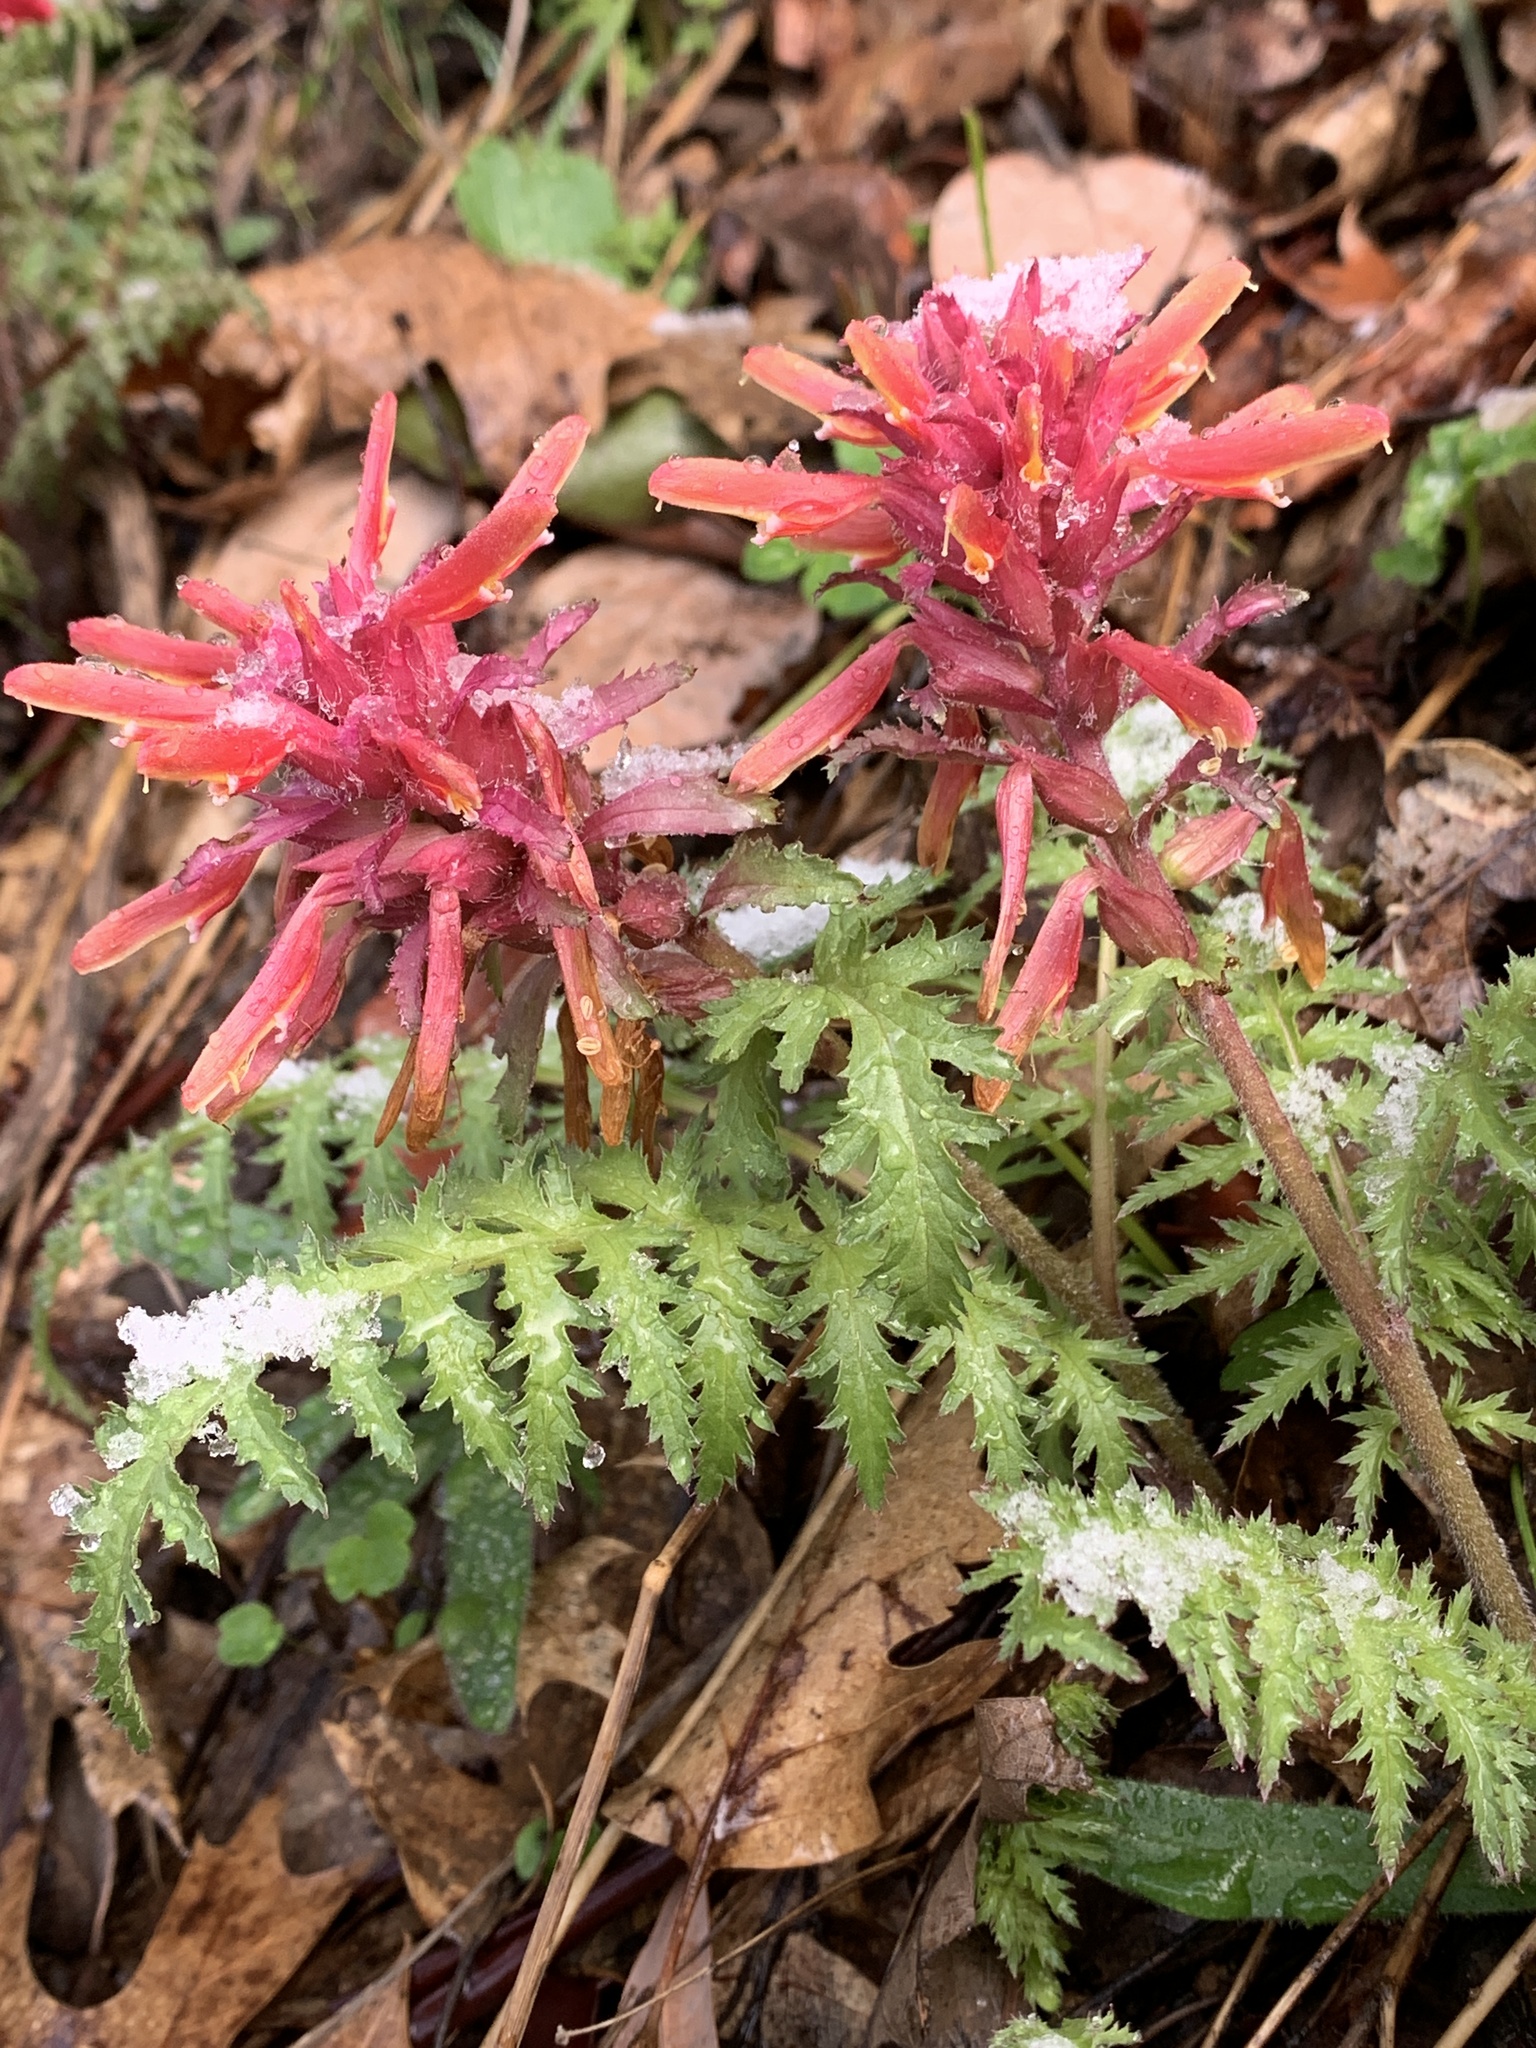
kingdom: Plantae
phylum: Tracheophyta
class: Magnoliopsida
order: Lamiales
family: Orobanchaceae
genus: Pedicularis
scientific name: Pedicularis densiflora
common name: Indian warrior
